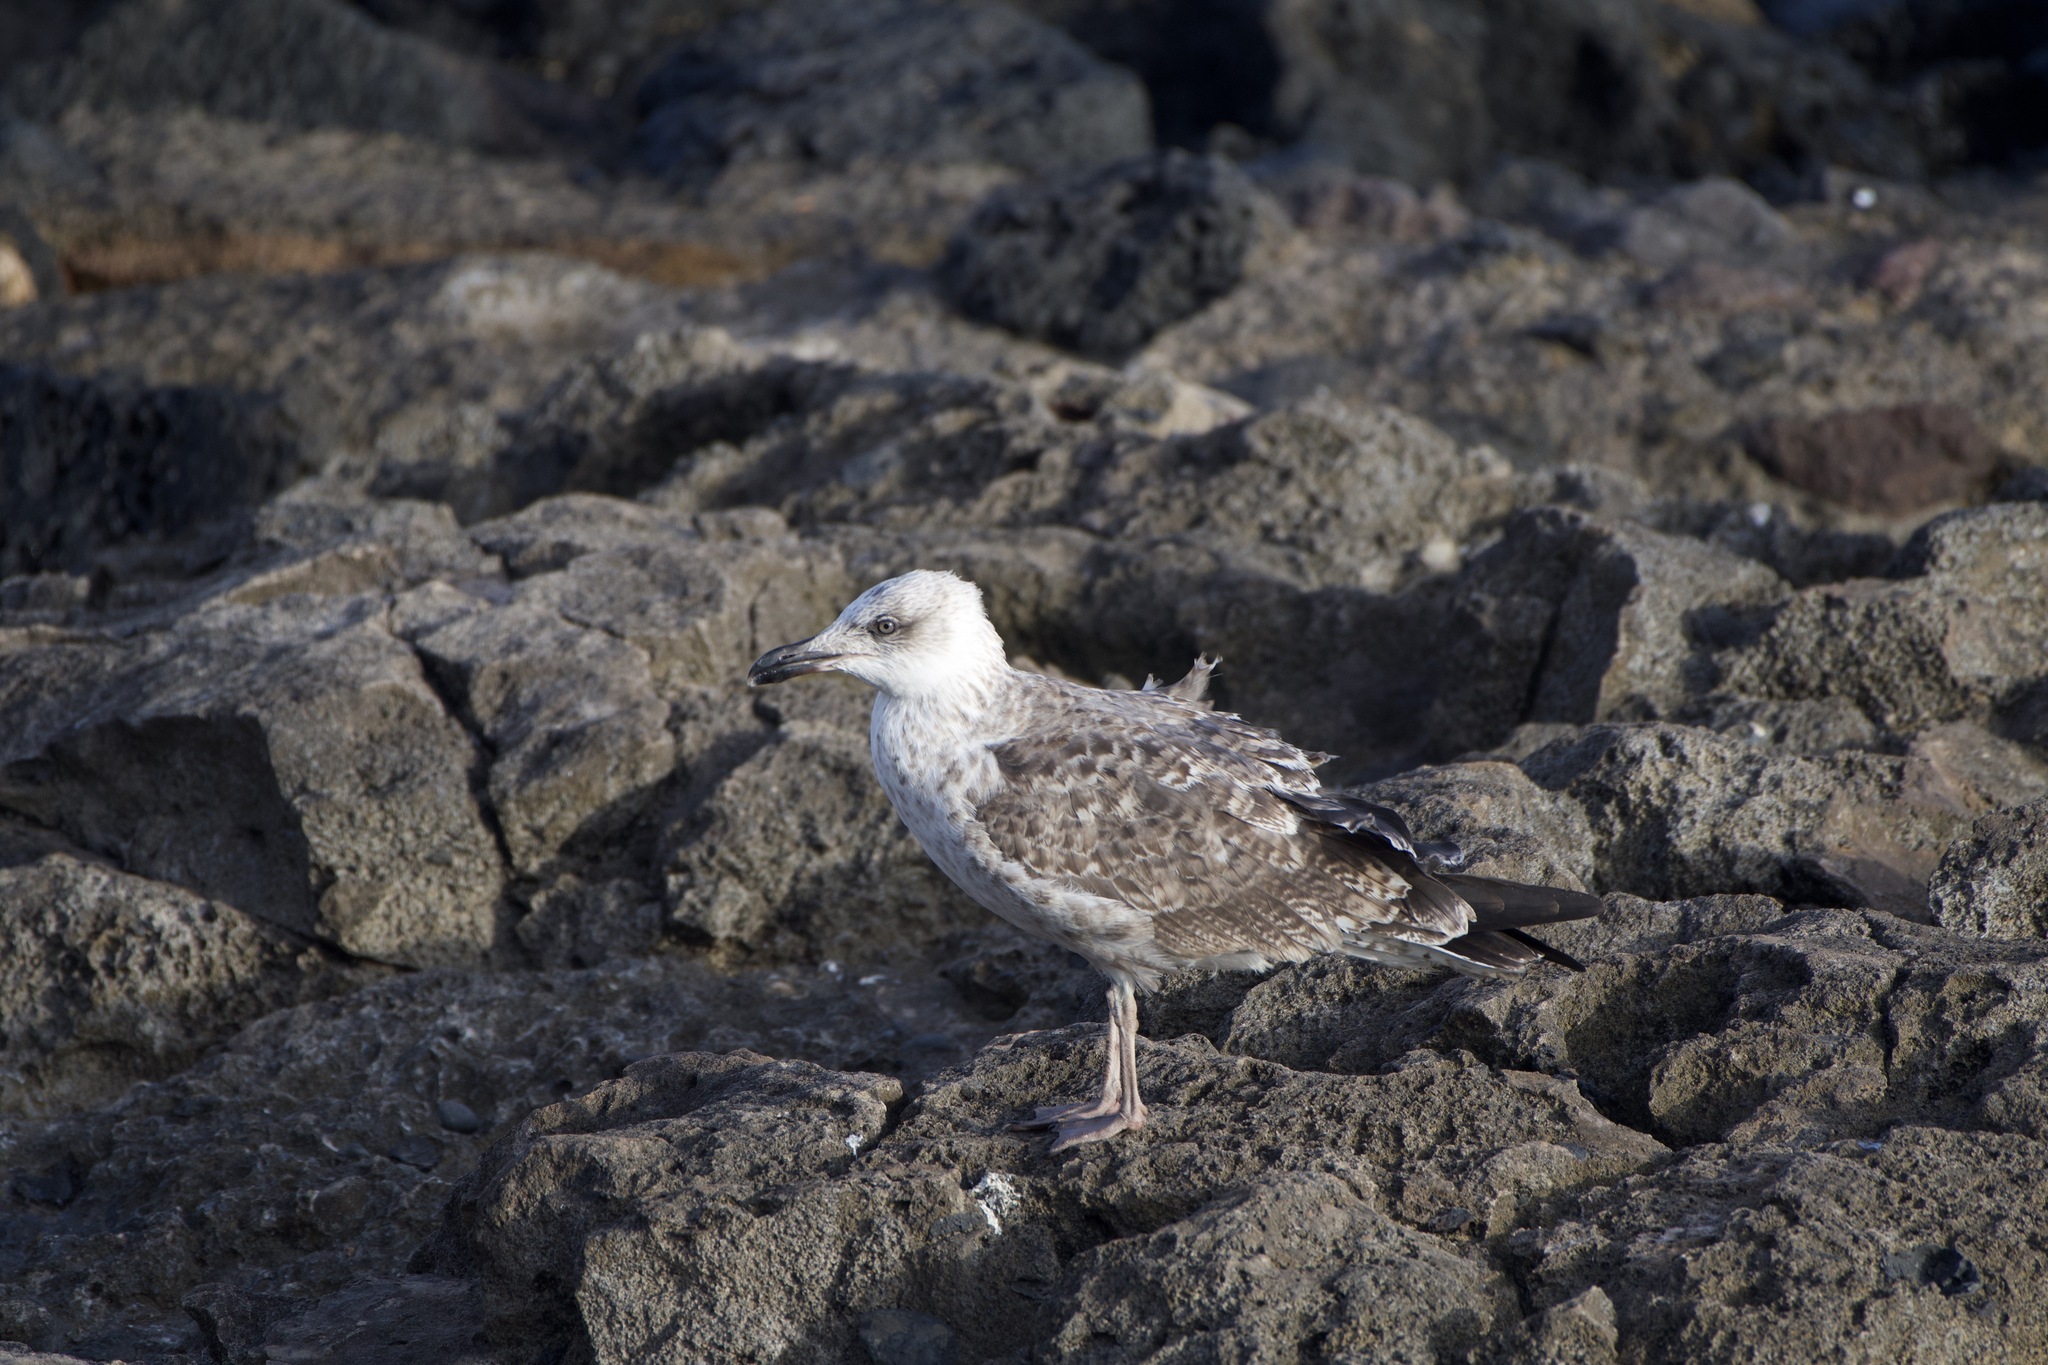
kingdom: Animalia
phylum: Chordata
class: Aves
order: Charadriiformes
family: Laridae
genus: Larus
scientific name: Larus michahellis
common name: Yellow-legged gull
